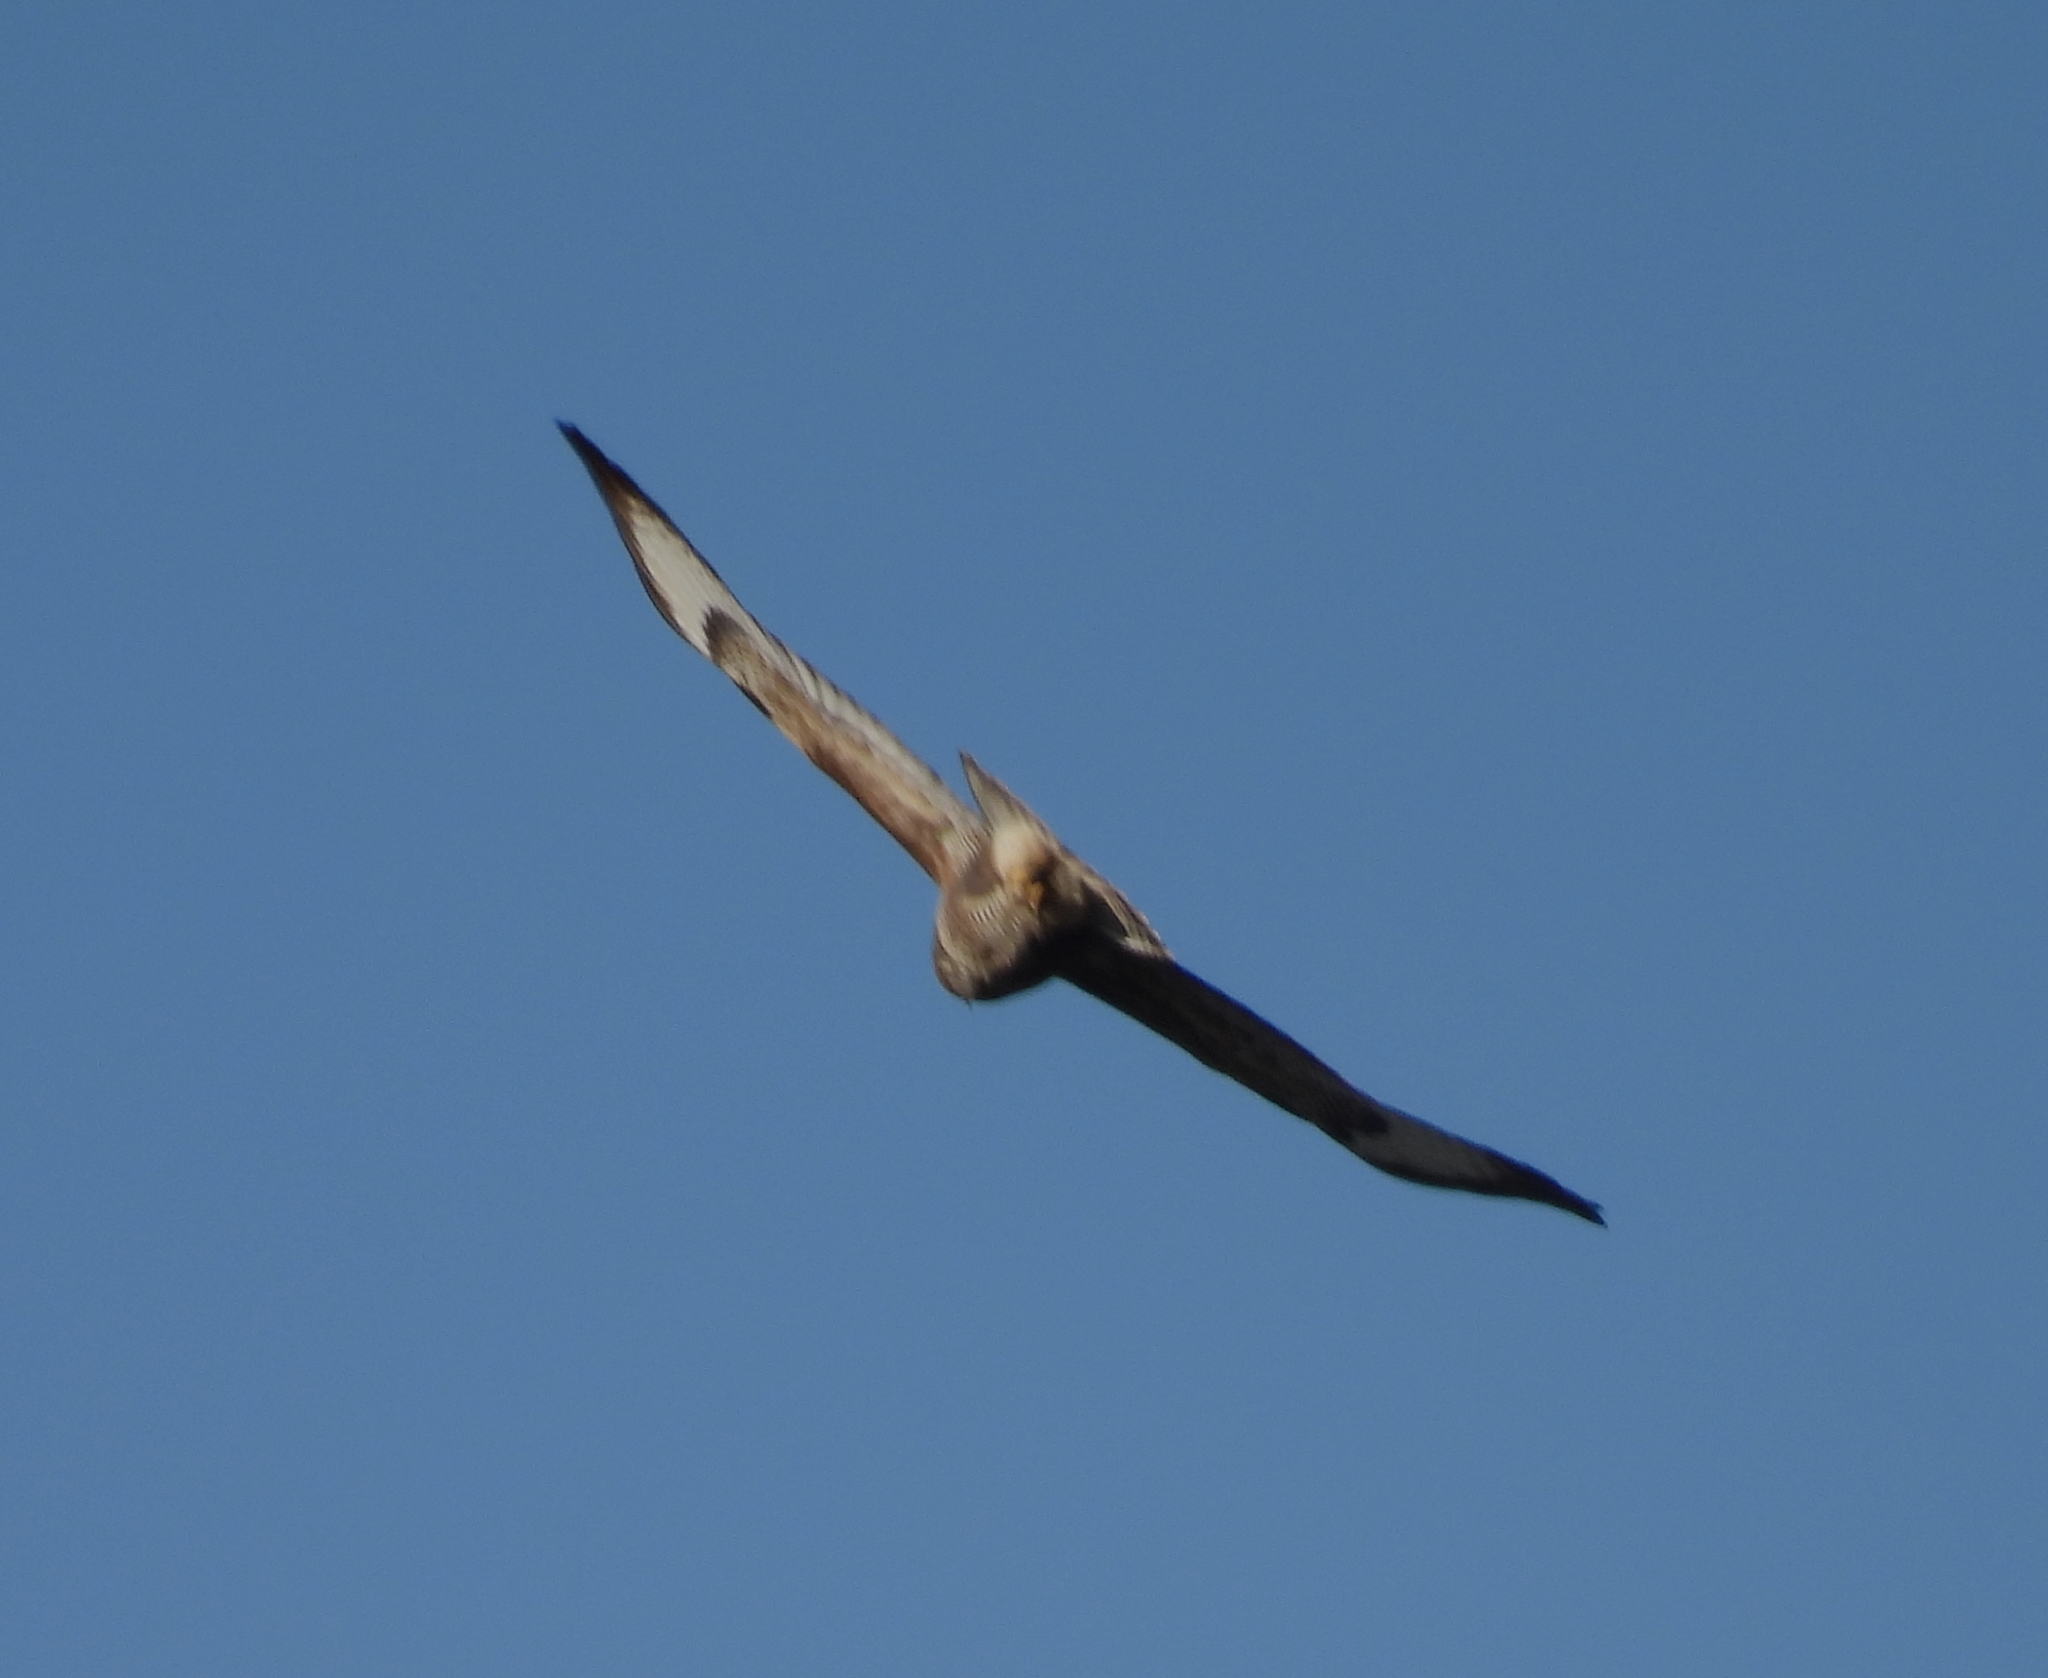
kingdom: Animalia
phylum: Chordata
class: Aves
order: Accipitriformes
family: Accipitridae
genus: Buteo
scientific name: Buteo buteo
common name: Common buzzard
